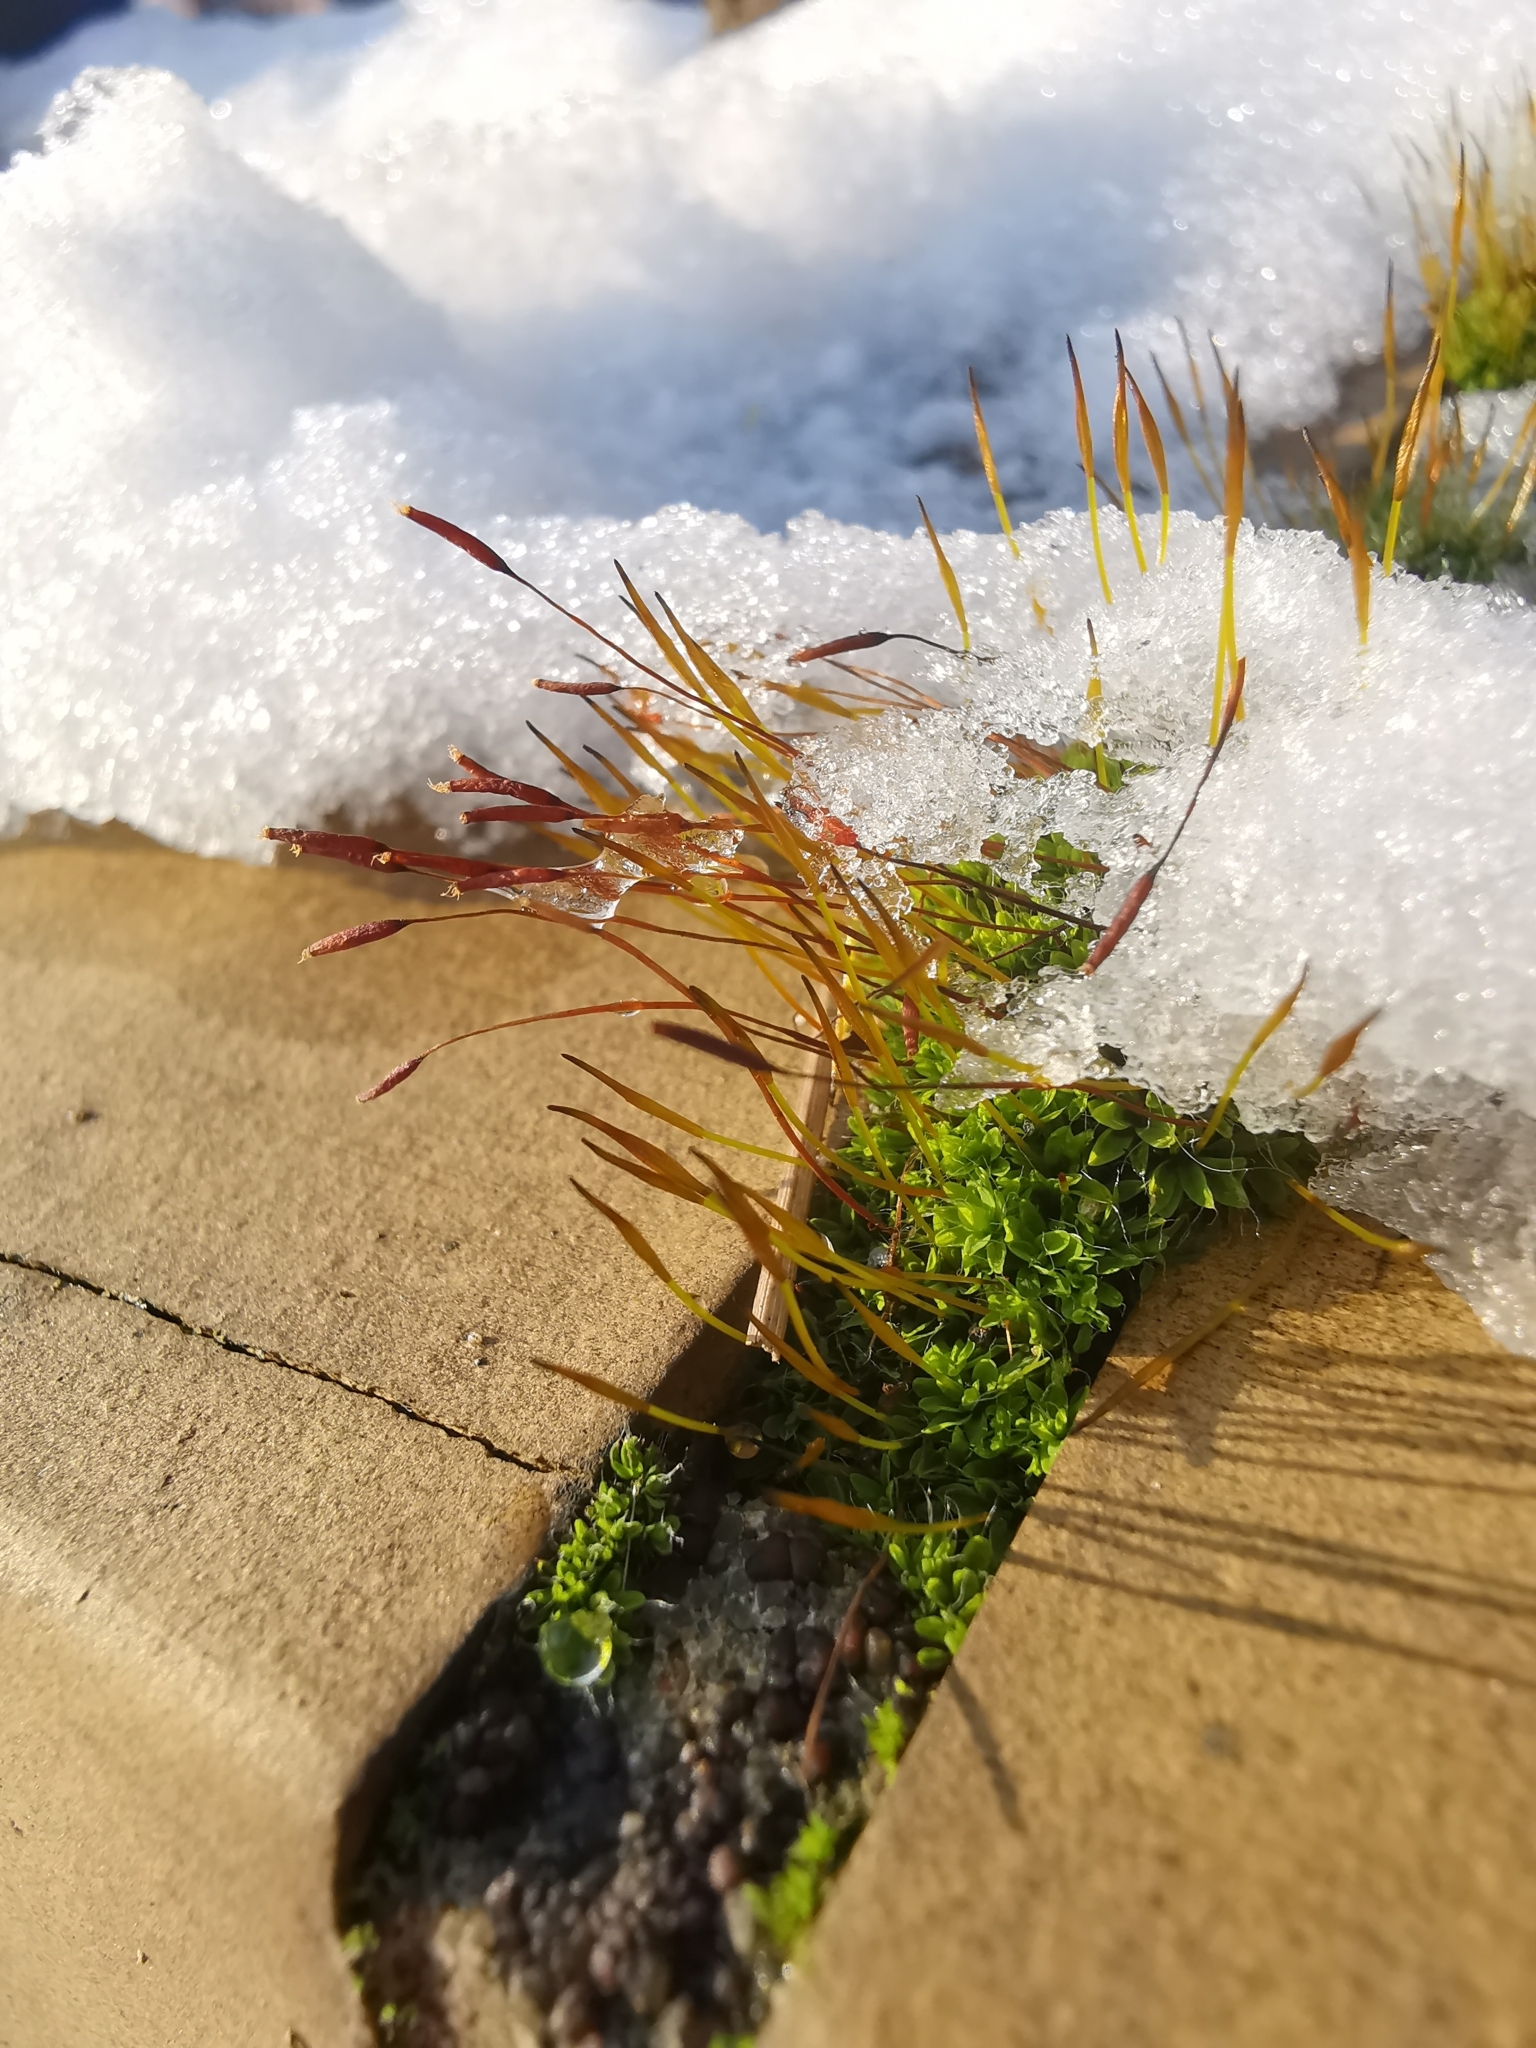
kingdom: Plantae
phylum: Bryophyta
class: Bryopsida
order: Pottiales
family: Pottiaceae
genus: Tortula
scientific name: Tortula muralis
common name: Wall screw-moss
